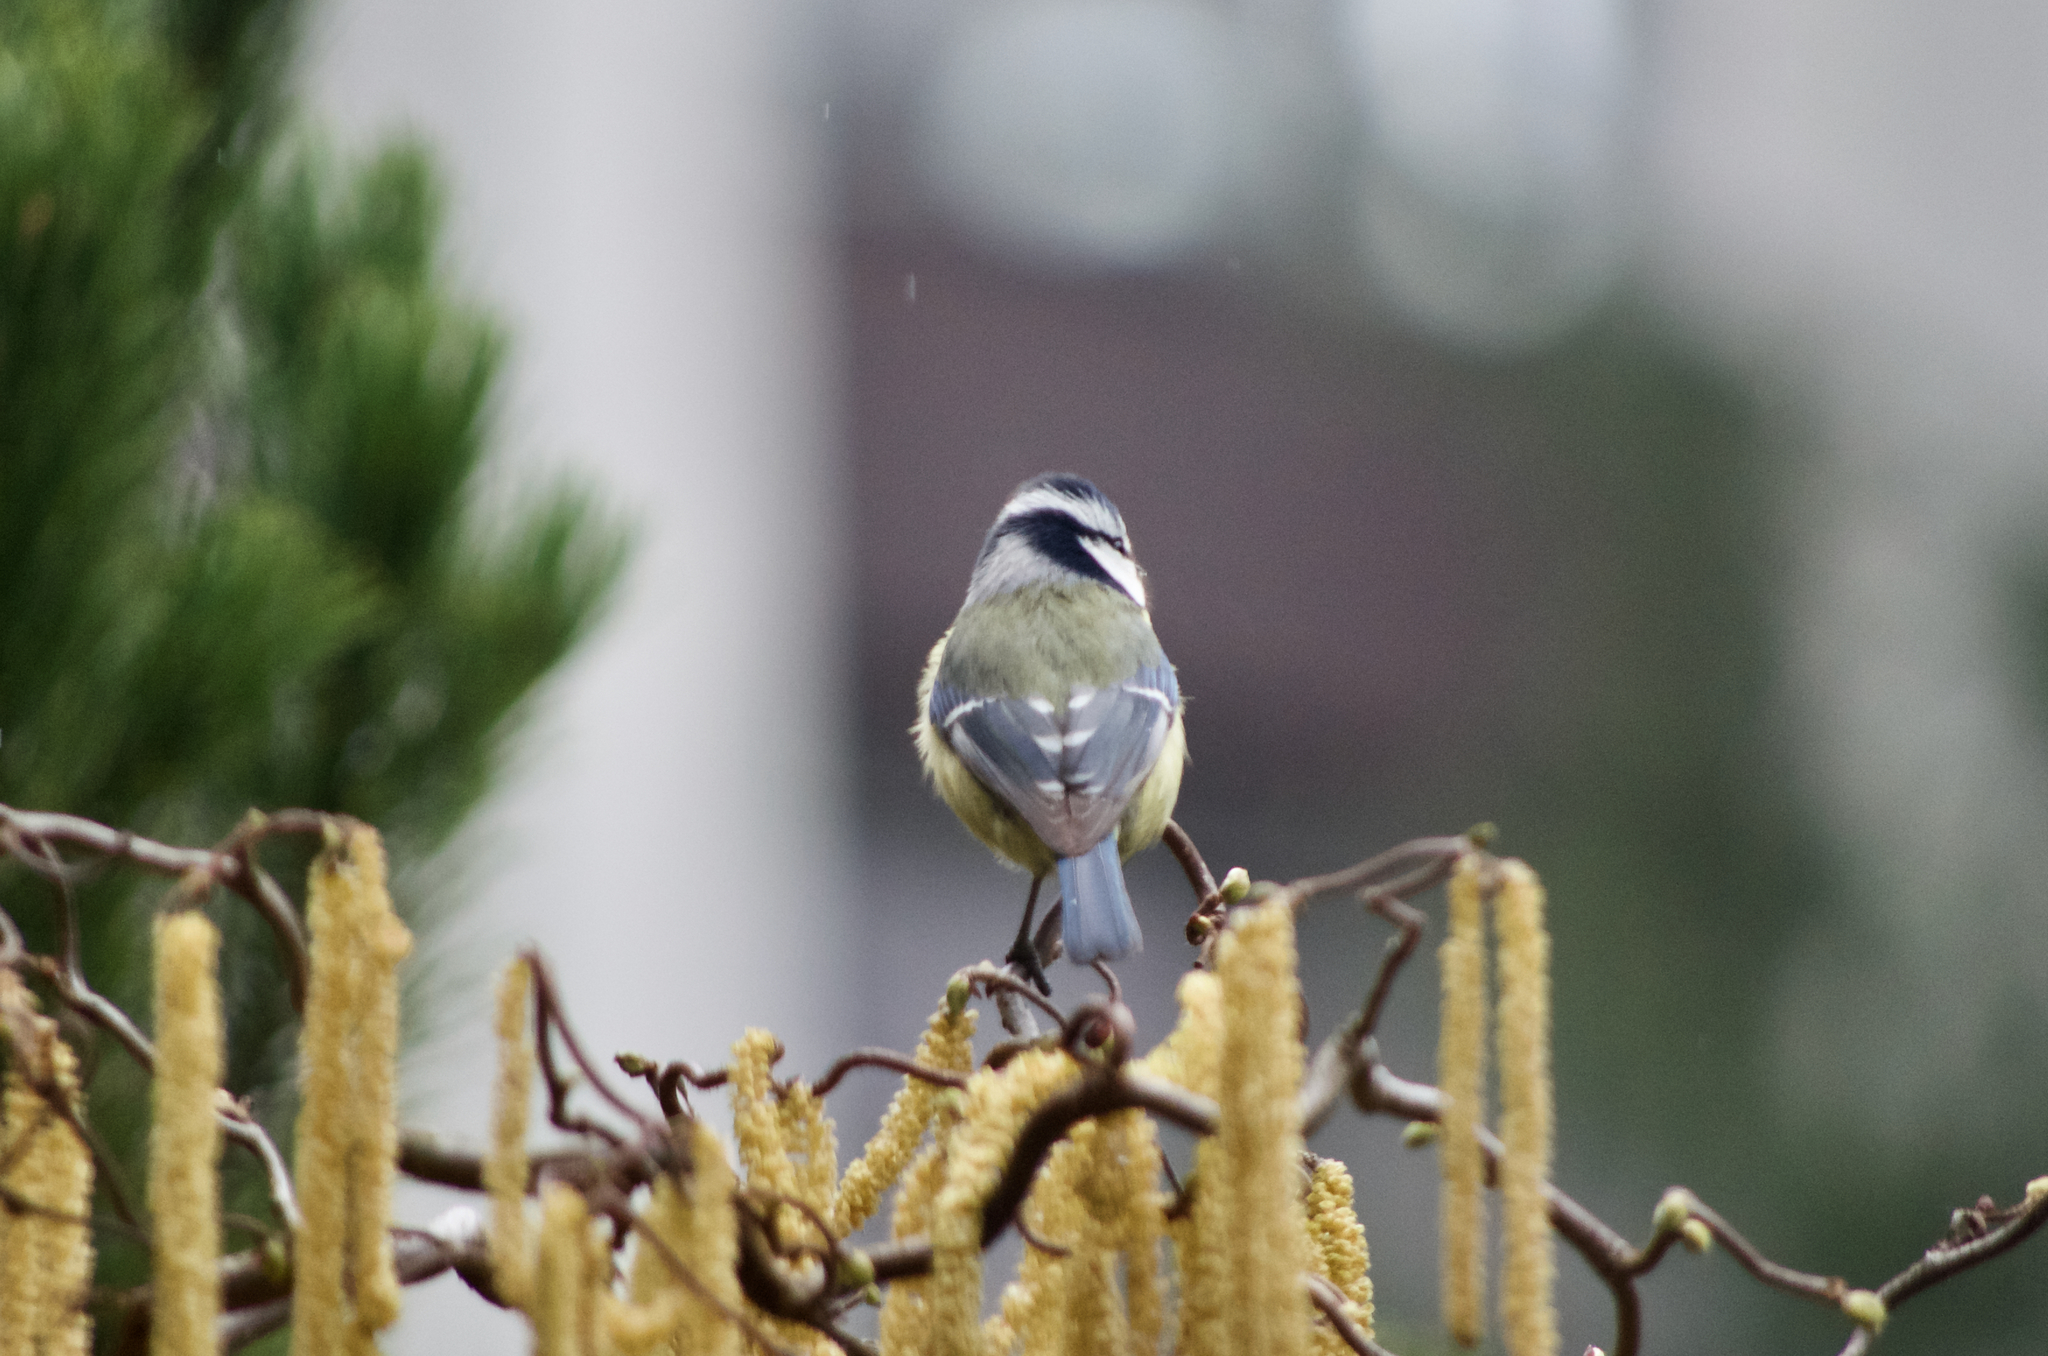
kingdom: Animalia
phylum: Chordata
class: Aves
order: Passeriformes
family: Paridae
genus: Cyanistes
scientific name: Cyanistes caeruleus
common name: Eurasian blue tit
